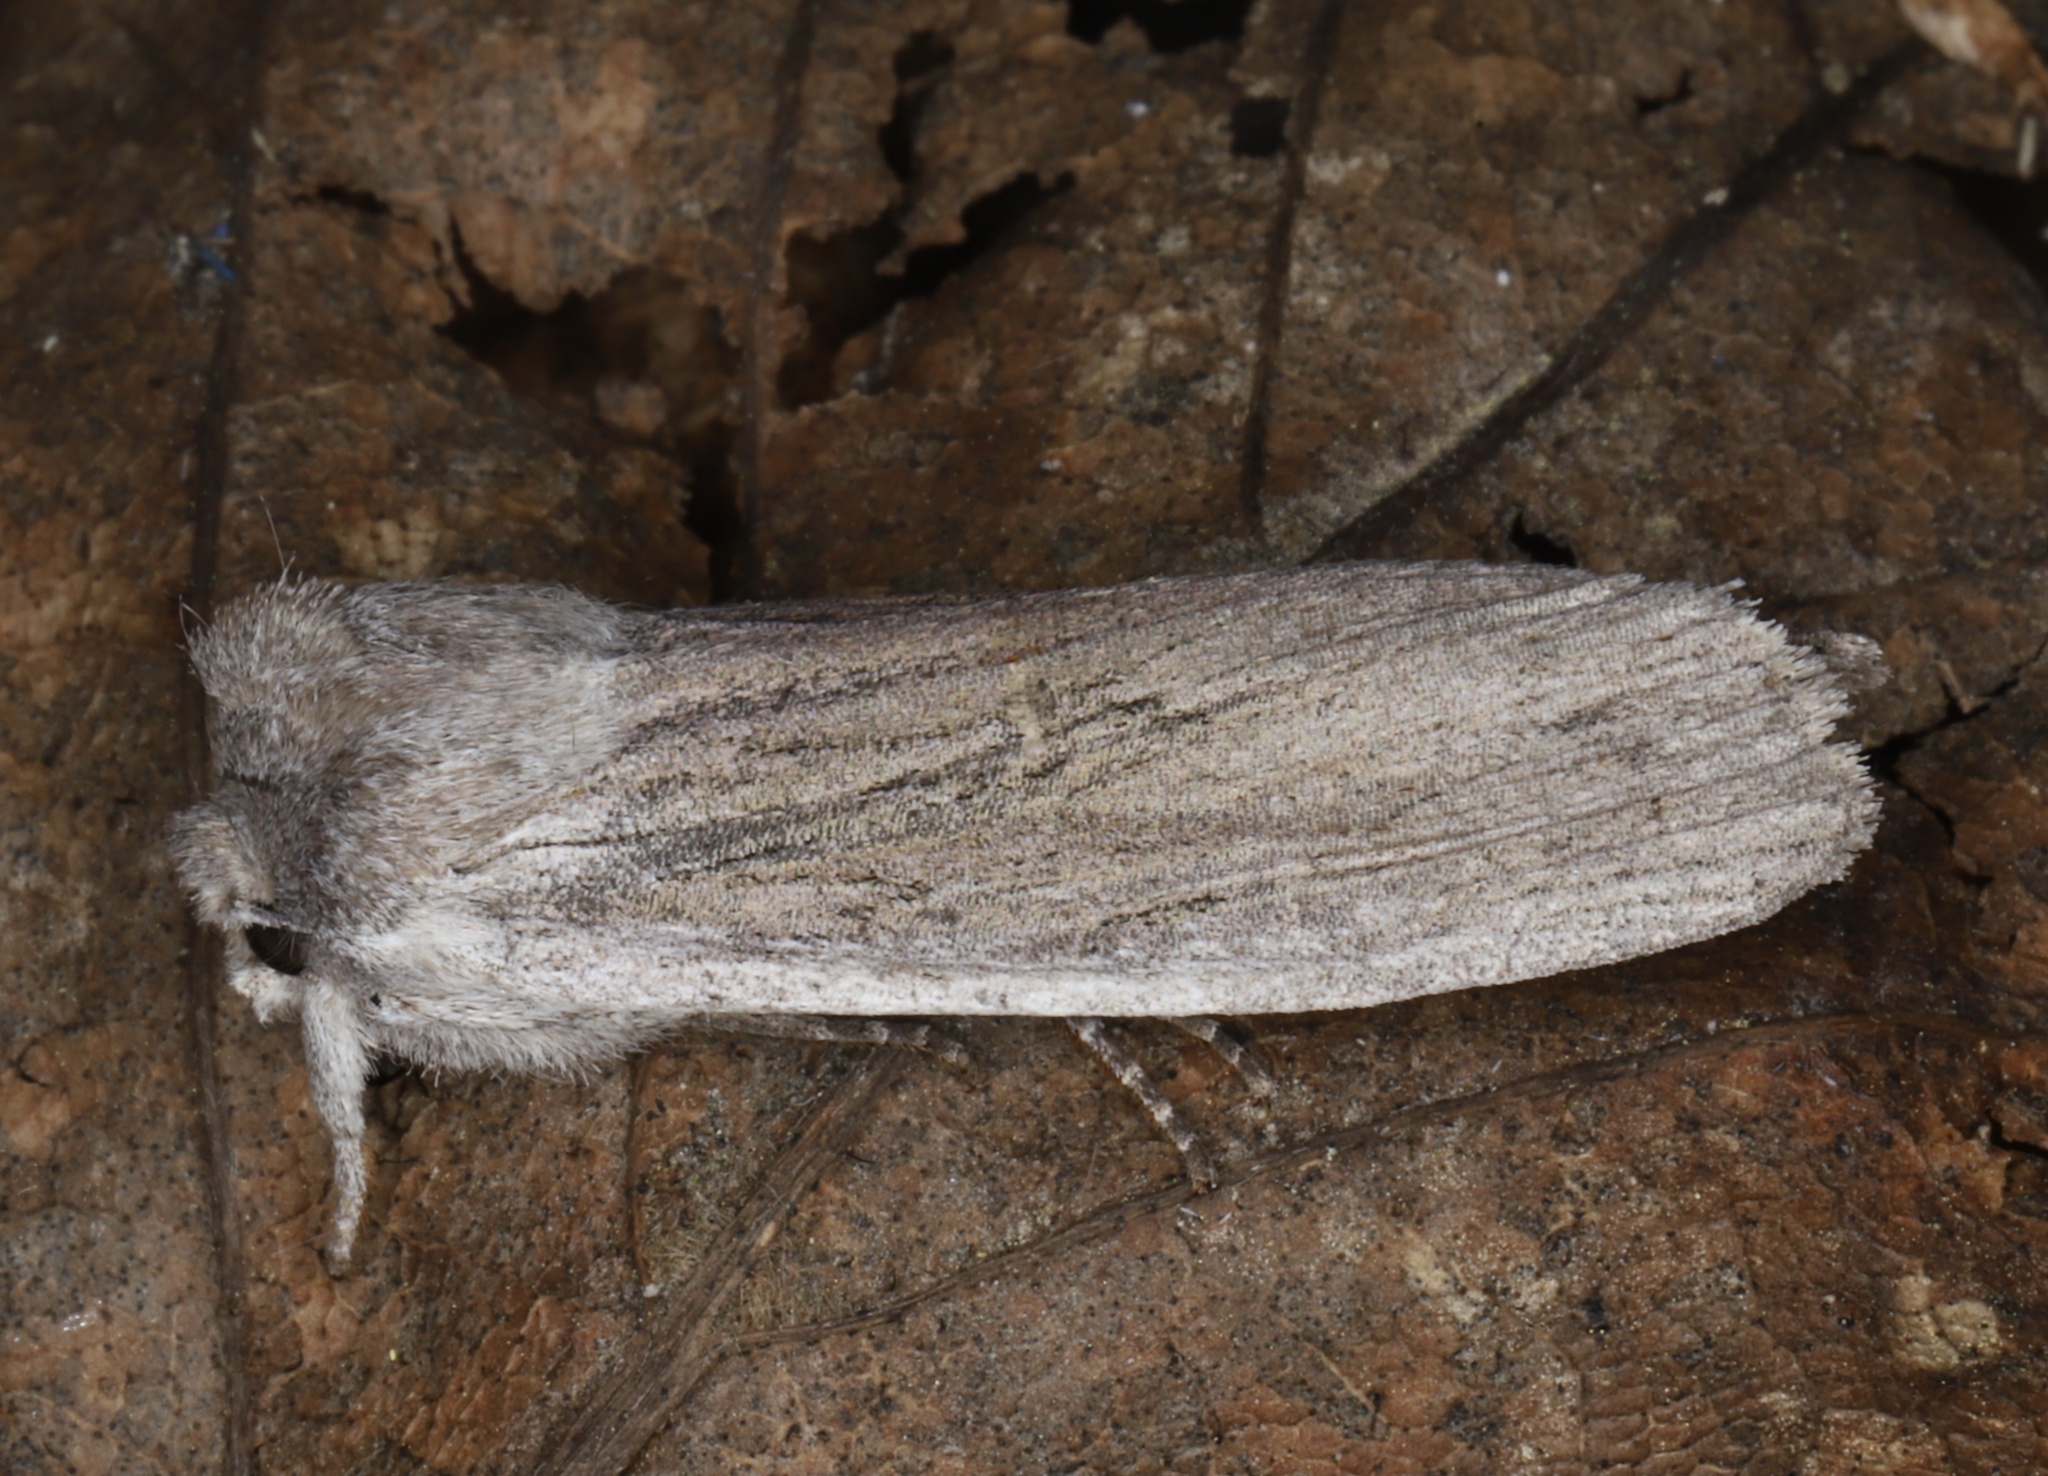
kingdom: Animalia
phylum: Arthropoda
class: Insecta
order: Lepidoptera
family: Noctuidae
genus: Lithophane
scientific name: Lithophane fagina
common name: Hoary pinion moth
